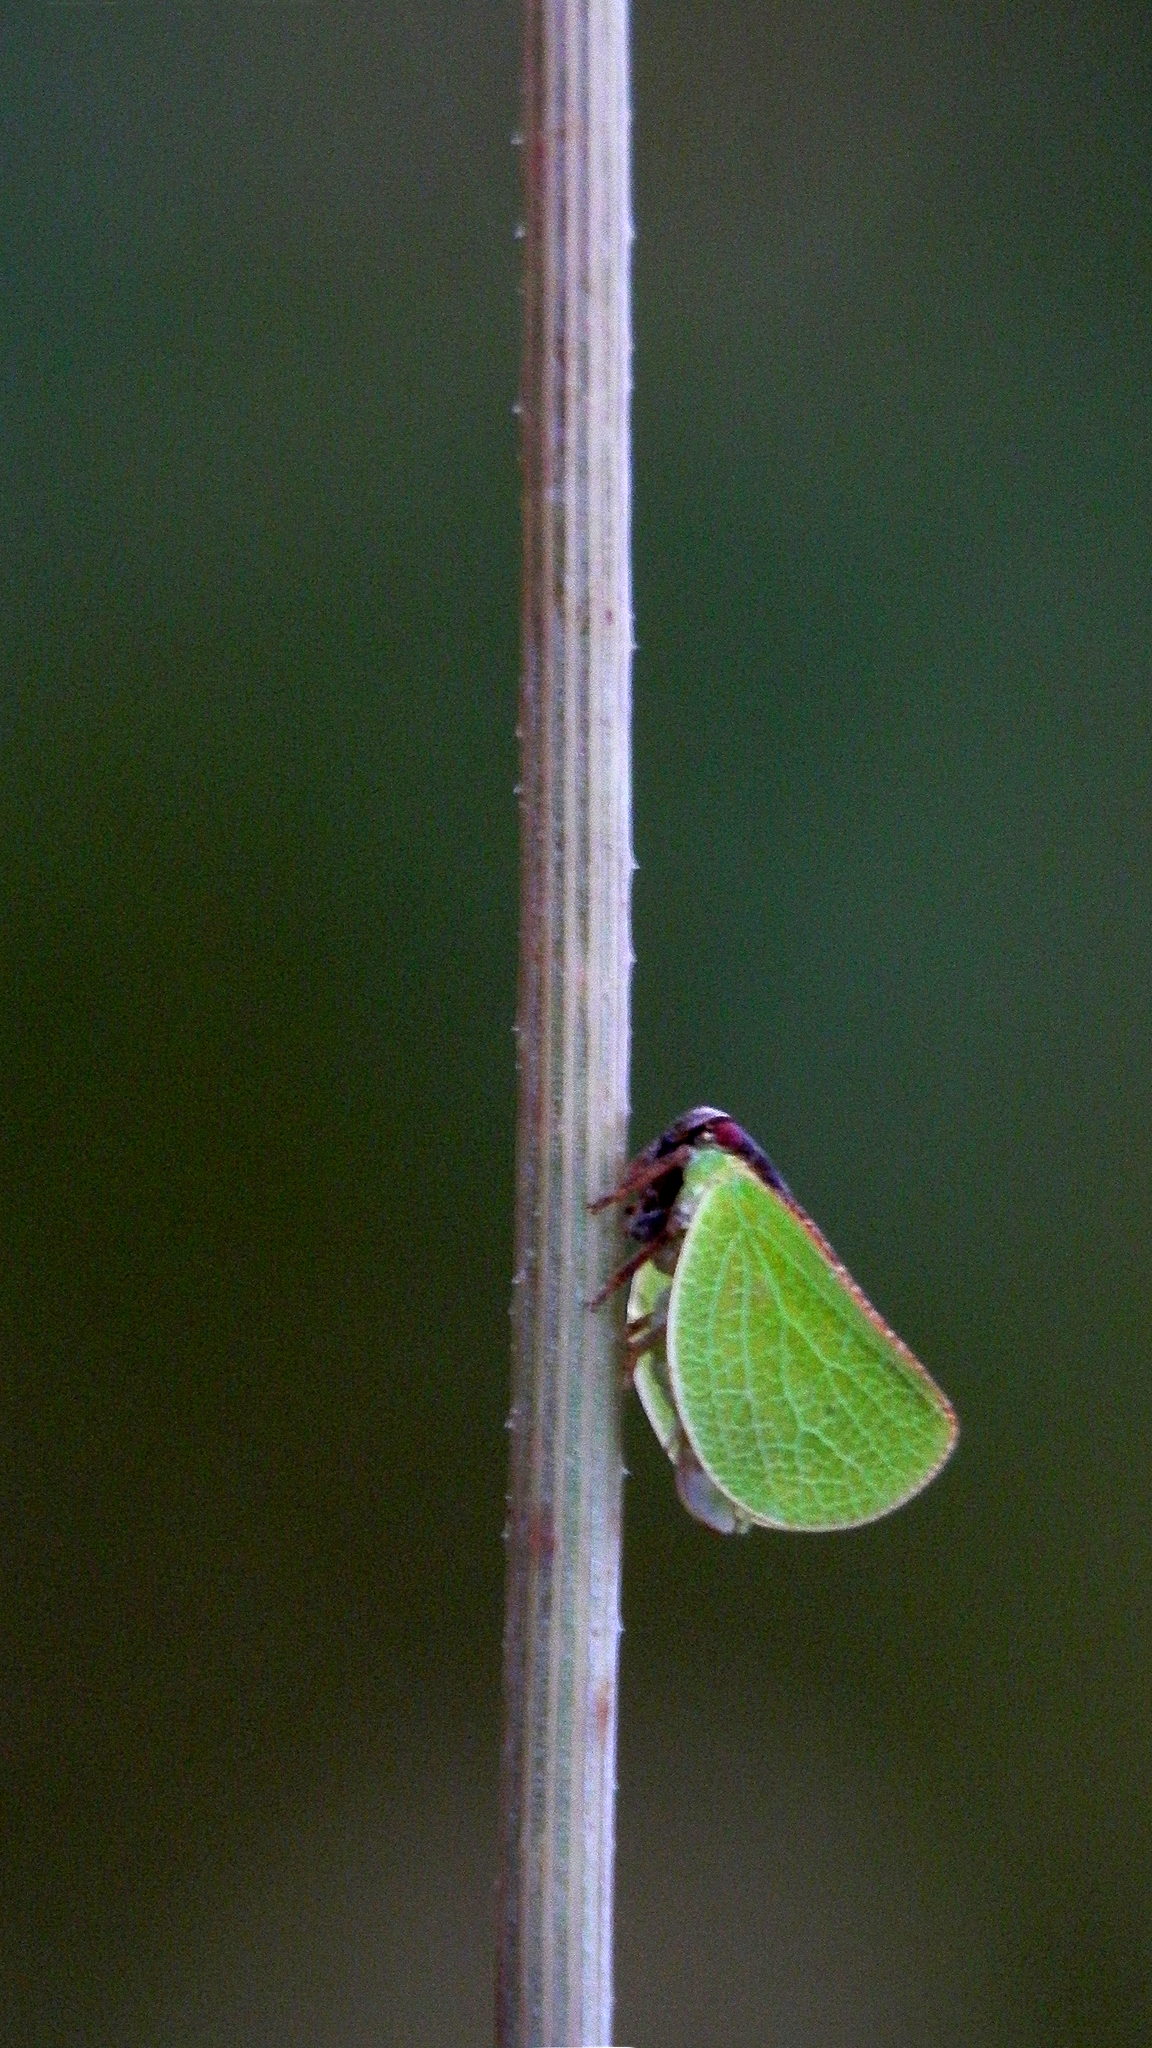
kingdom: Animalia
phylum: Arthropoda
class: Insecta
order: Hemiptera
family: Acanaloniidae
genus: Acanalonia
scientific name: Acanalonia bivittata
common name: Two-striped planthopper
